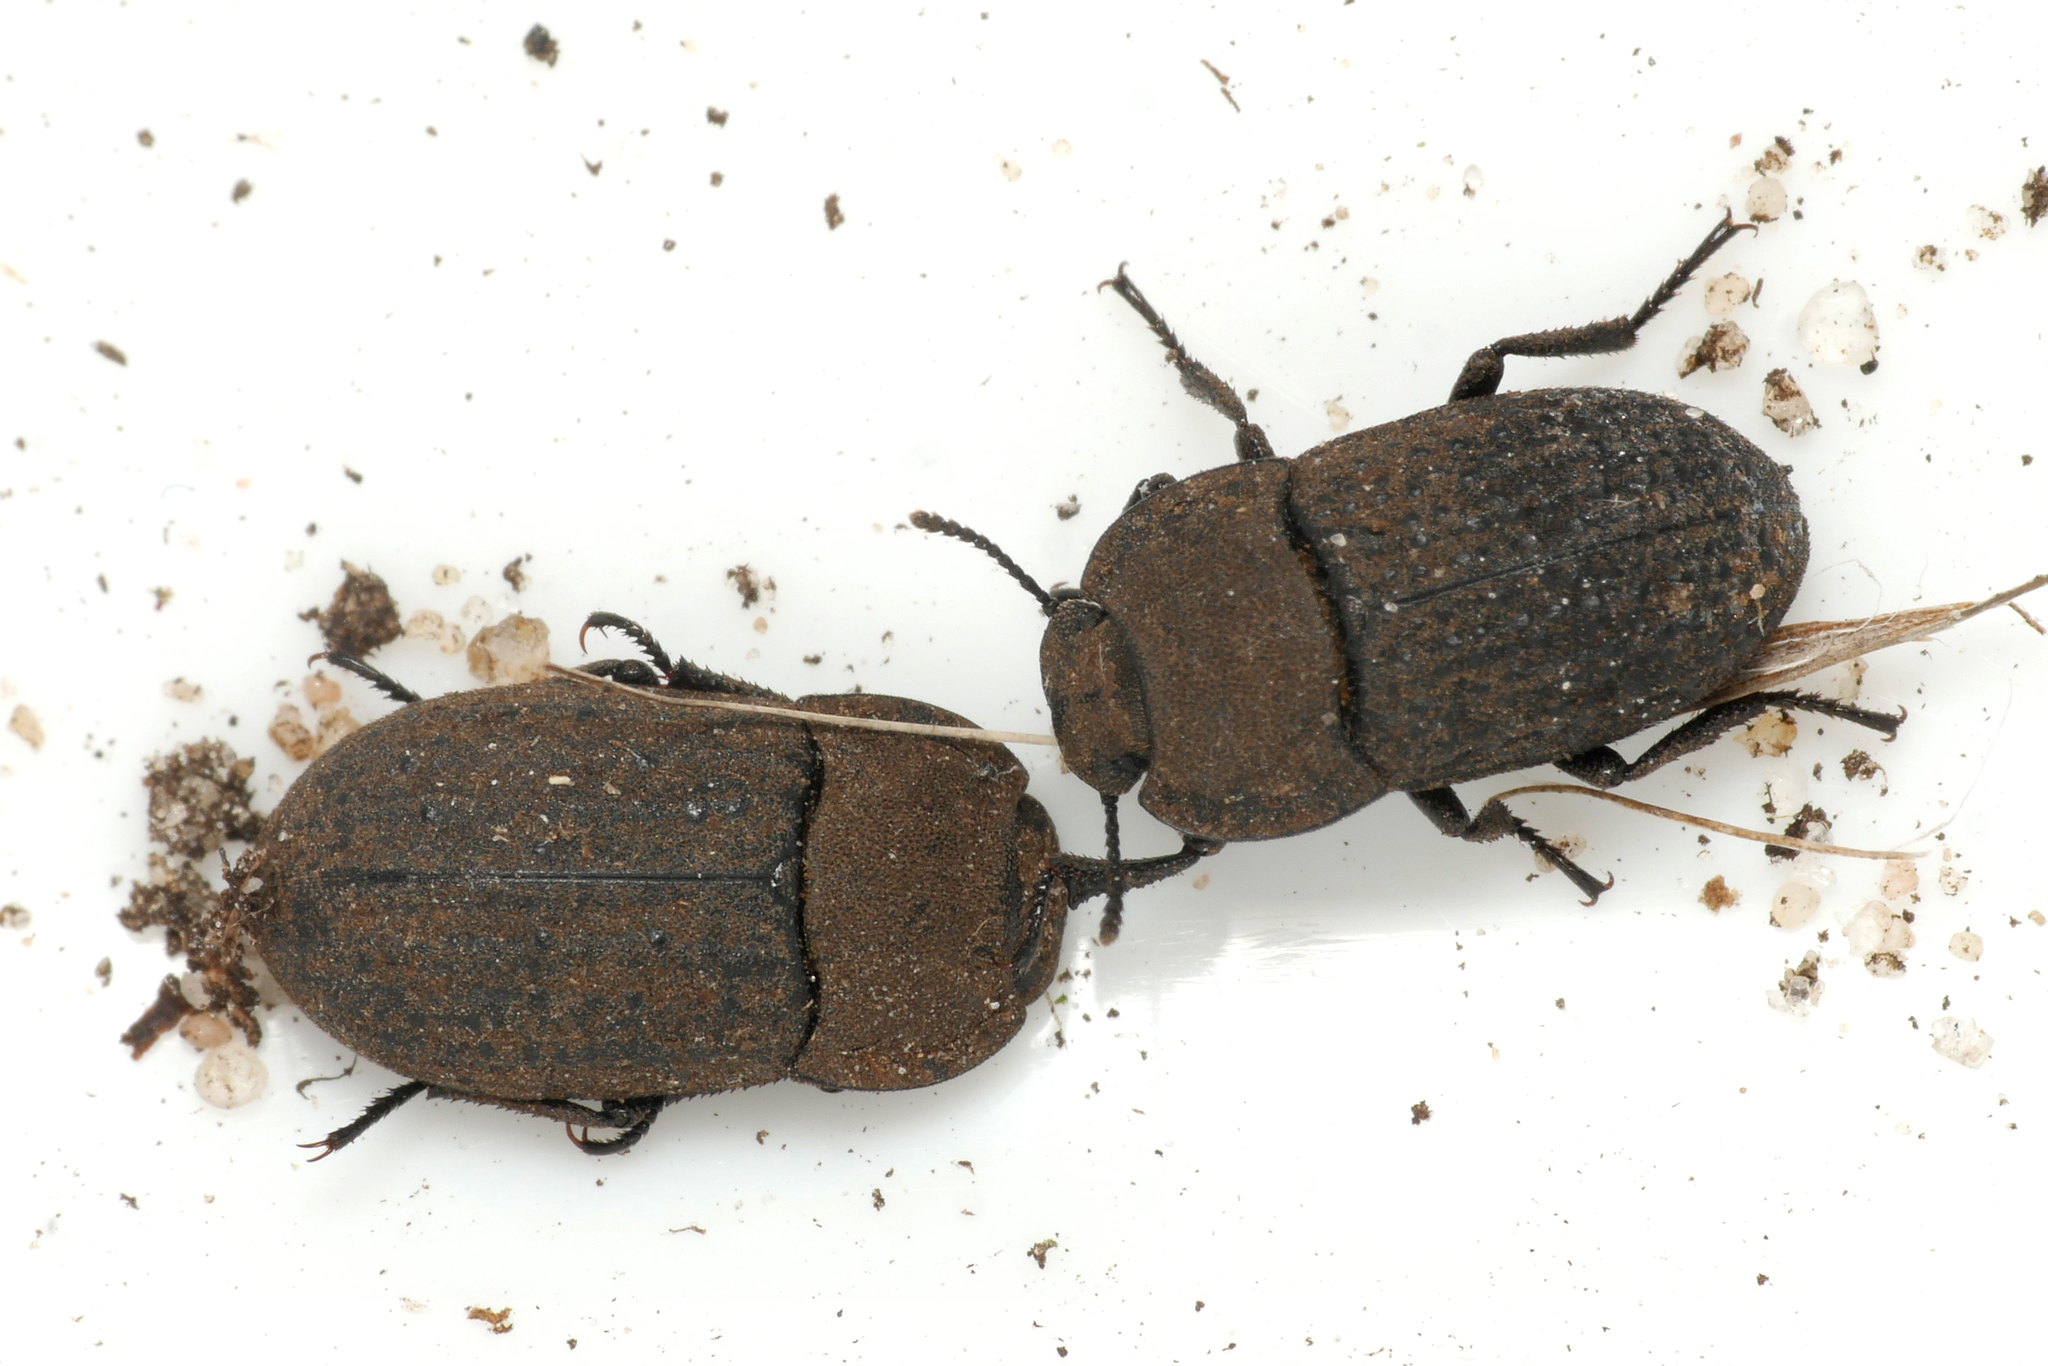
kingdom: Animalia
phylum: Arthropoda
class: Insecta
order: Coleoptera
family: Tenebrionidae
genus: Opatrum
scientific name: Opatrum sabulosum
